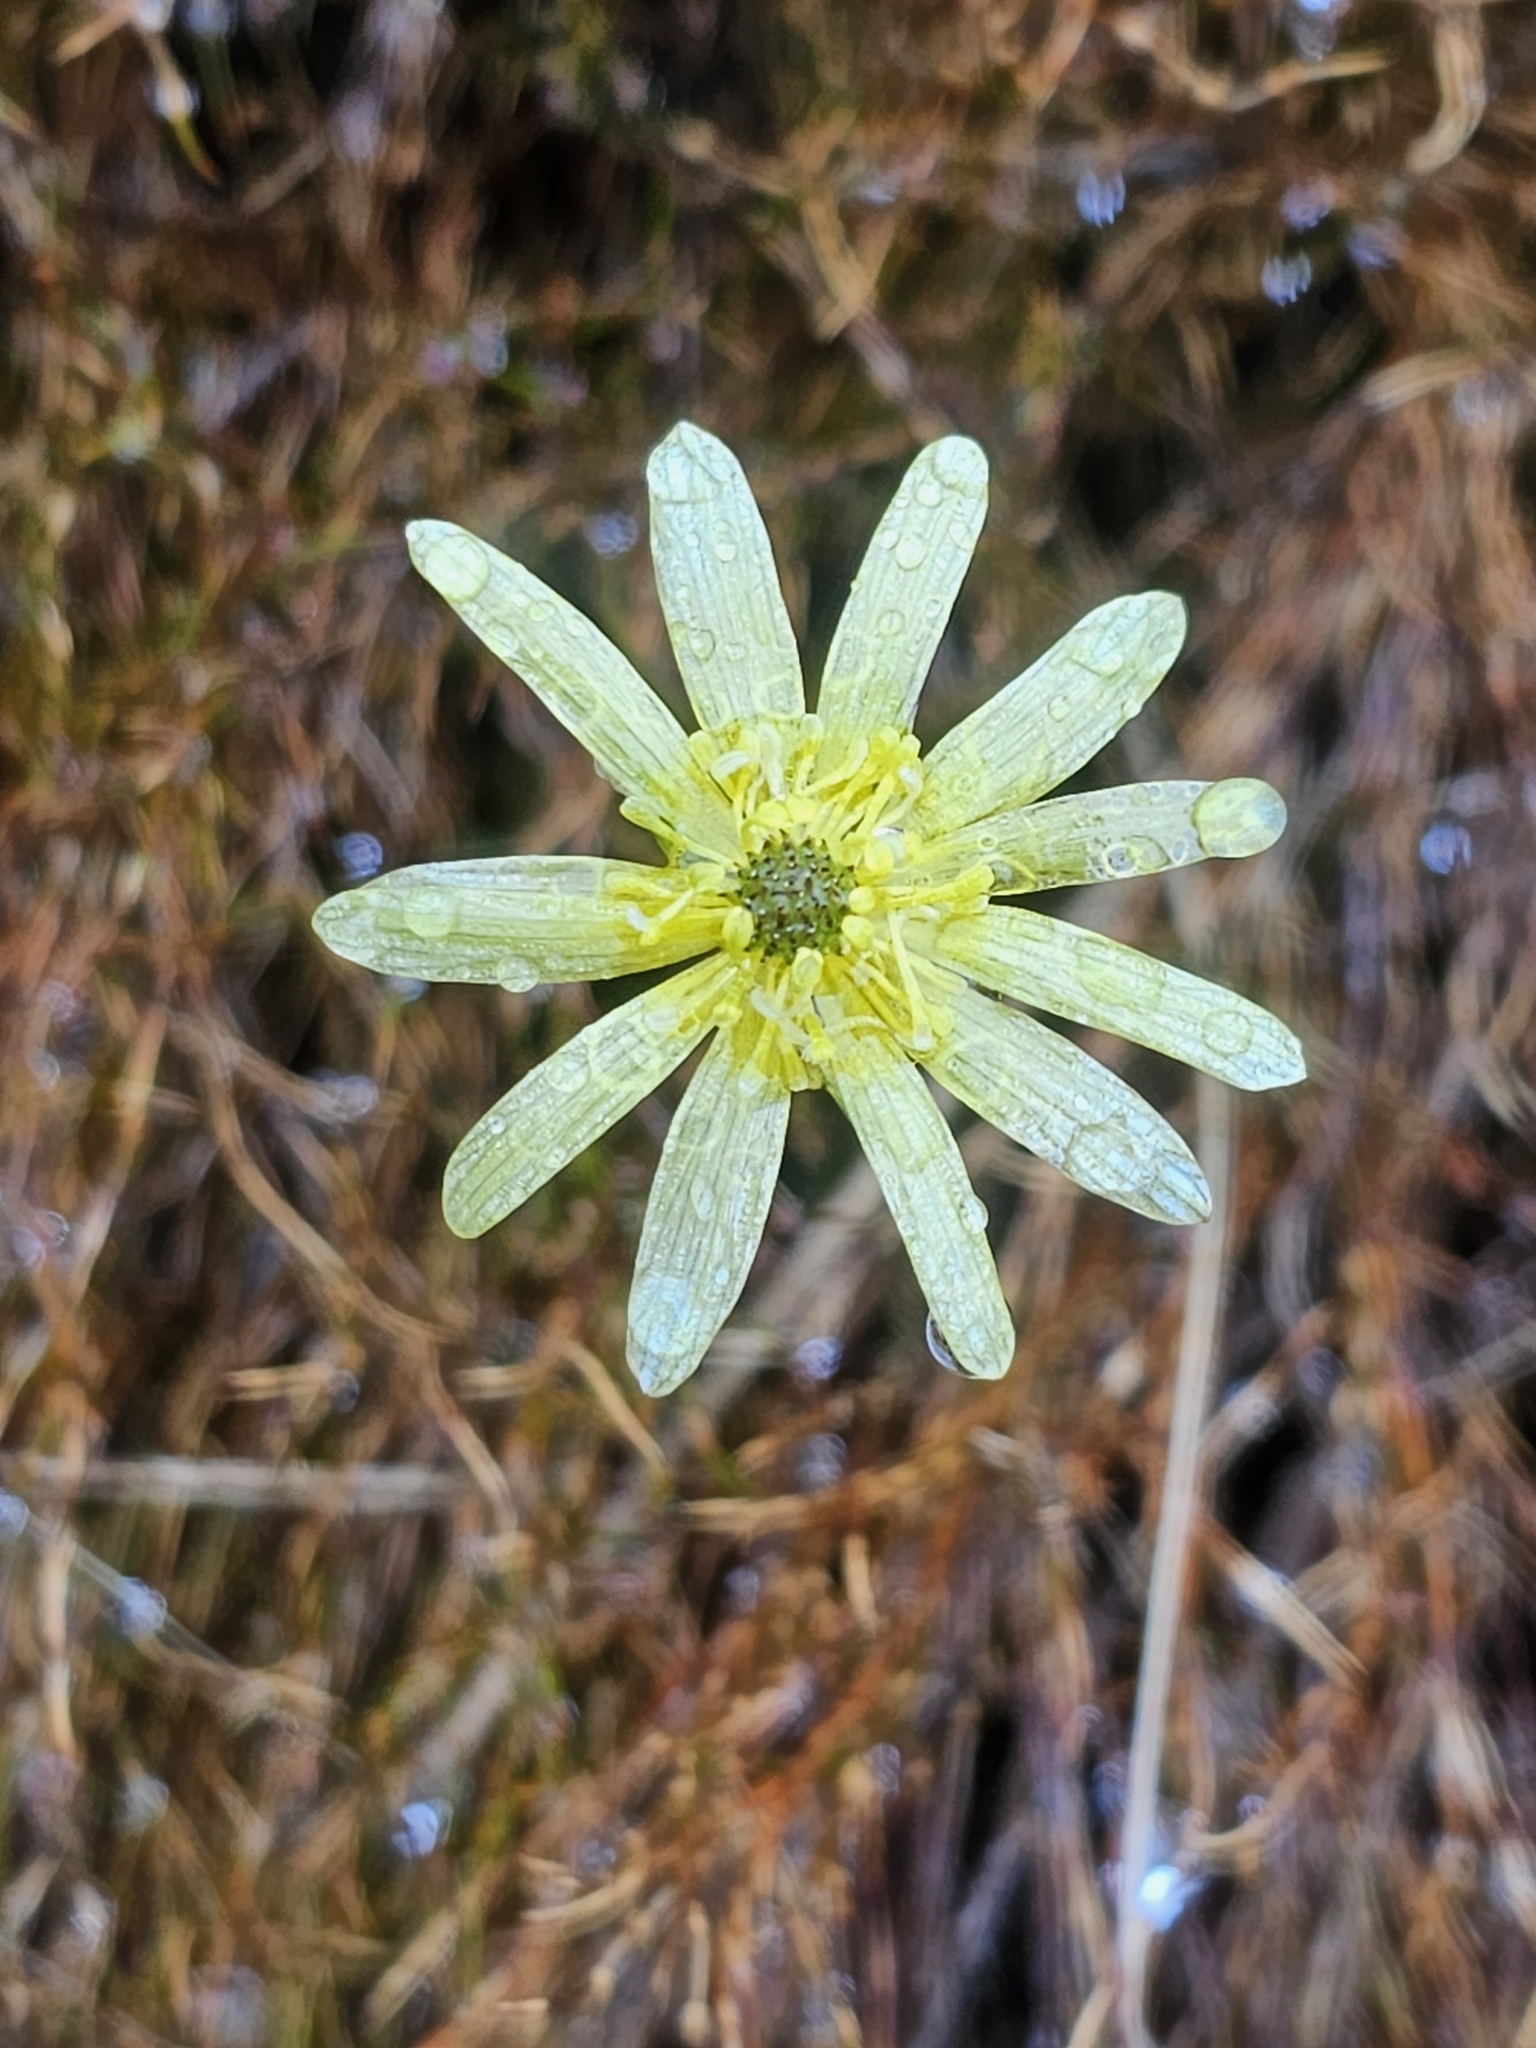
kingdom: Plantae
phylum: Tracheophyta
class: Magnoliopsida
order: Ranunculales
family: Ranunculaceae
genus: Ranunculus
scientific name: Ranunculus verticillatus
